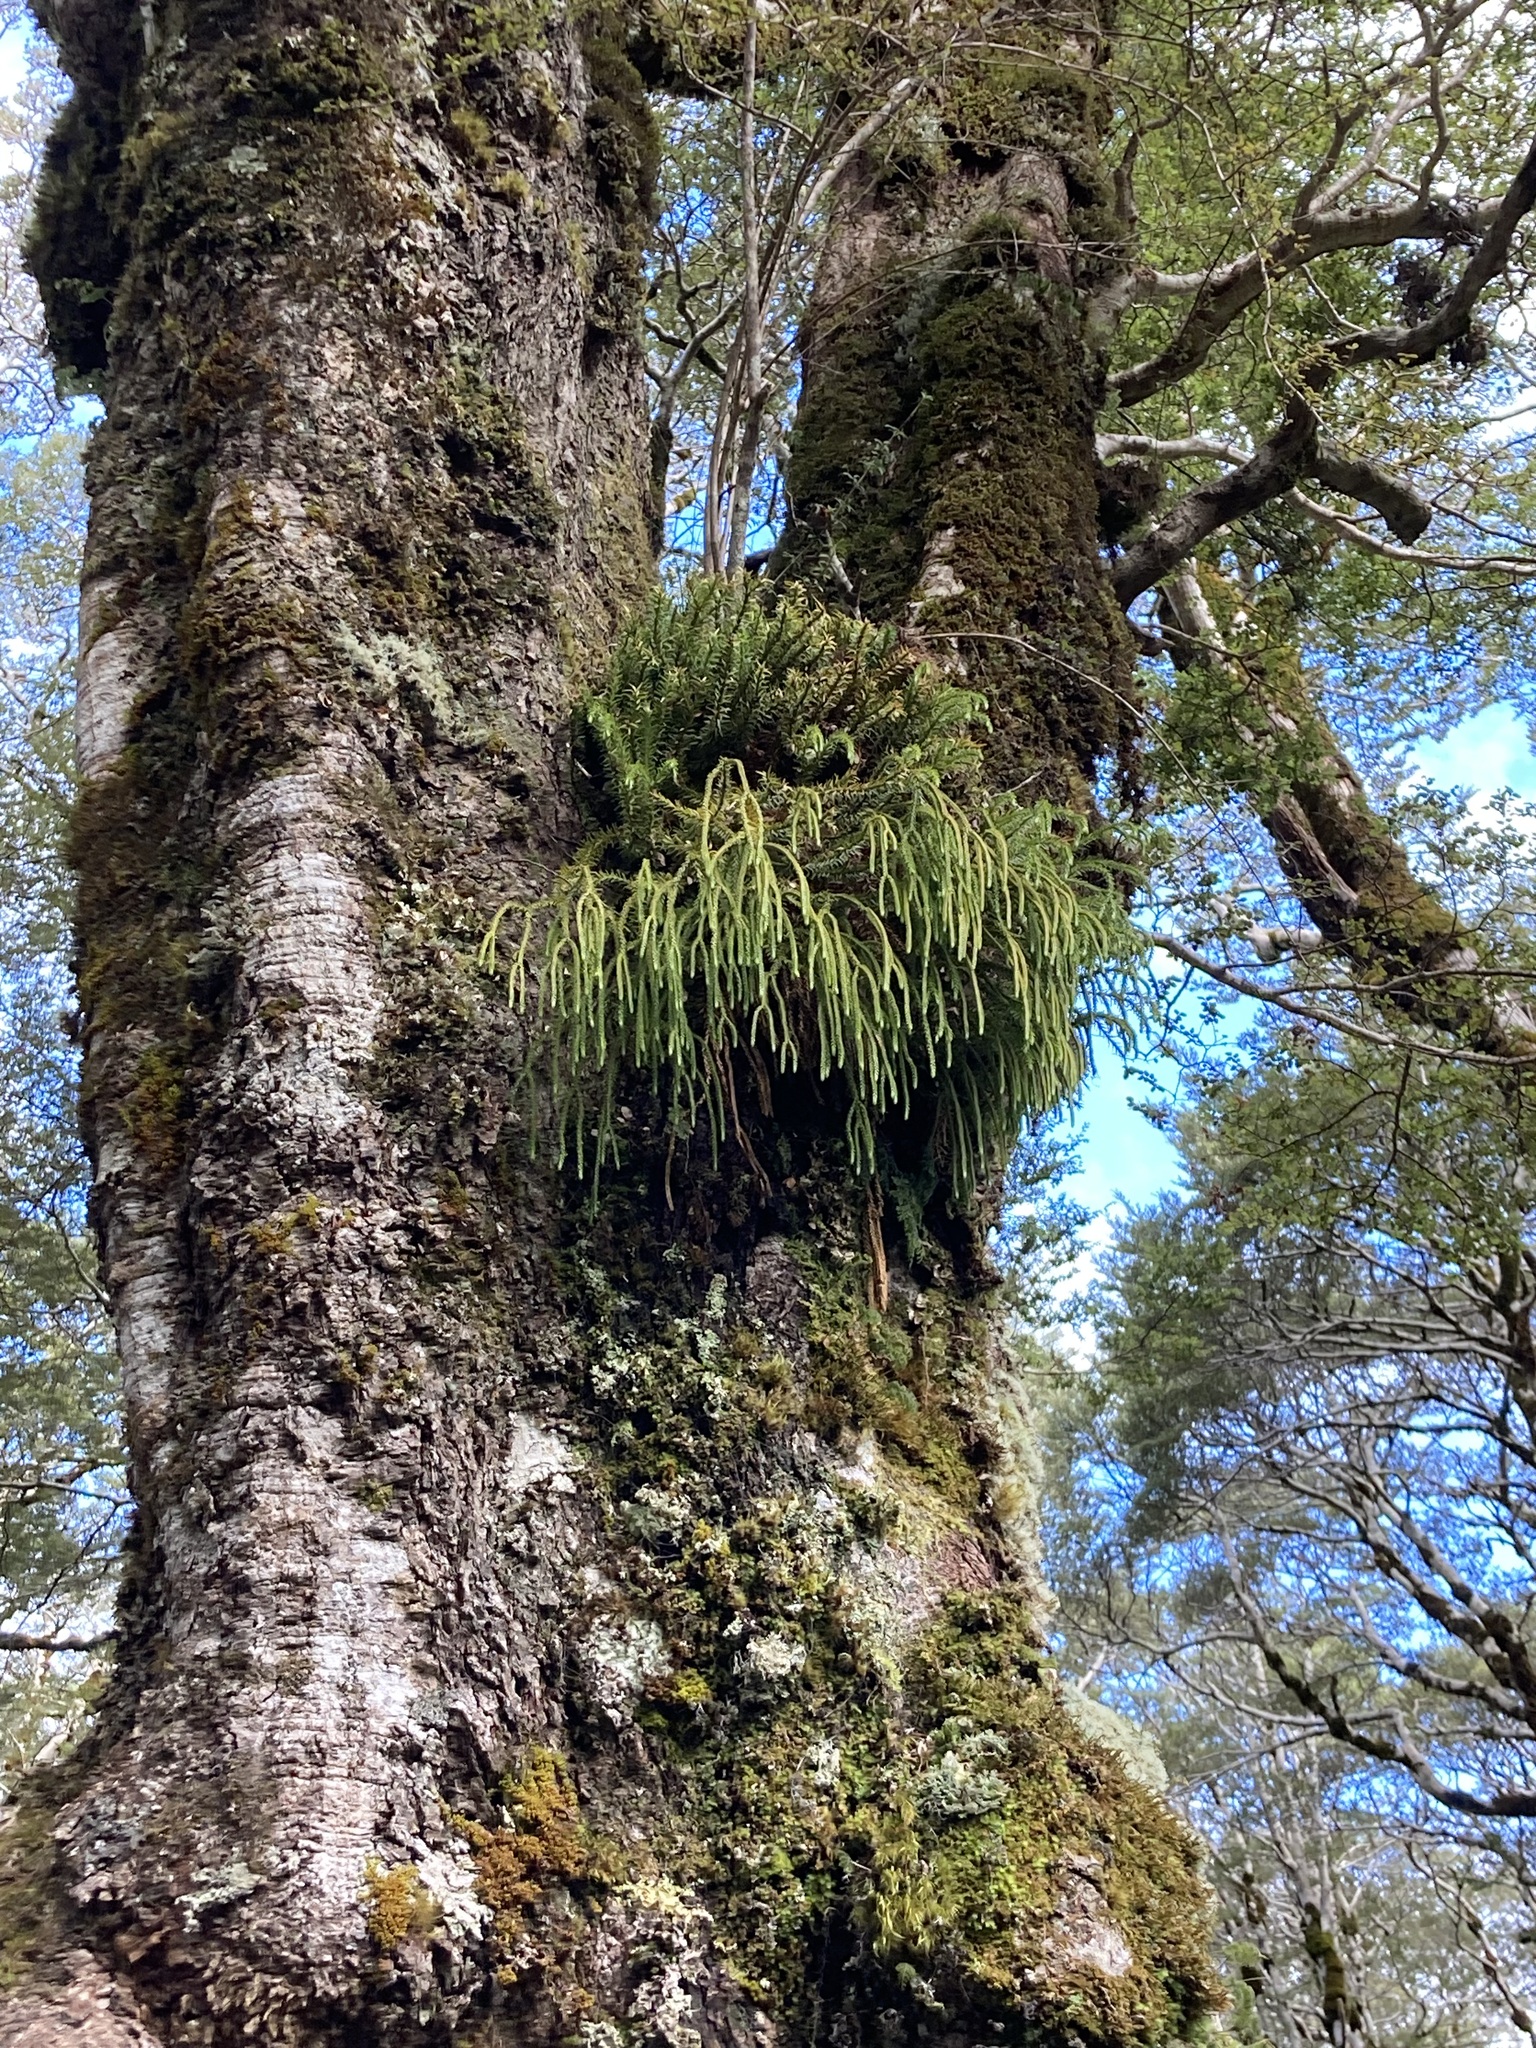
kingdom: Plantae
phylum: Tracheophyta
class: Lycopodiopsida
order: Lycopodiales
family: Lycopodiaceae
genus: Phlegmariurus
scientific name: Phlegmariurus varius
